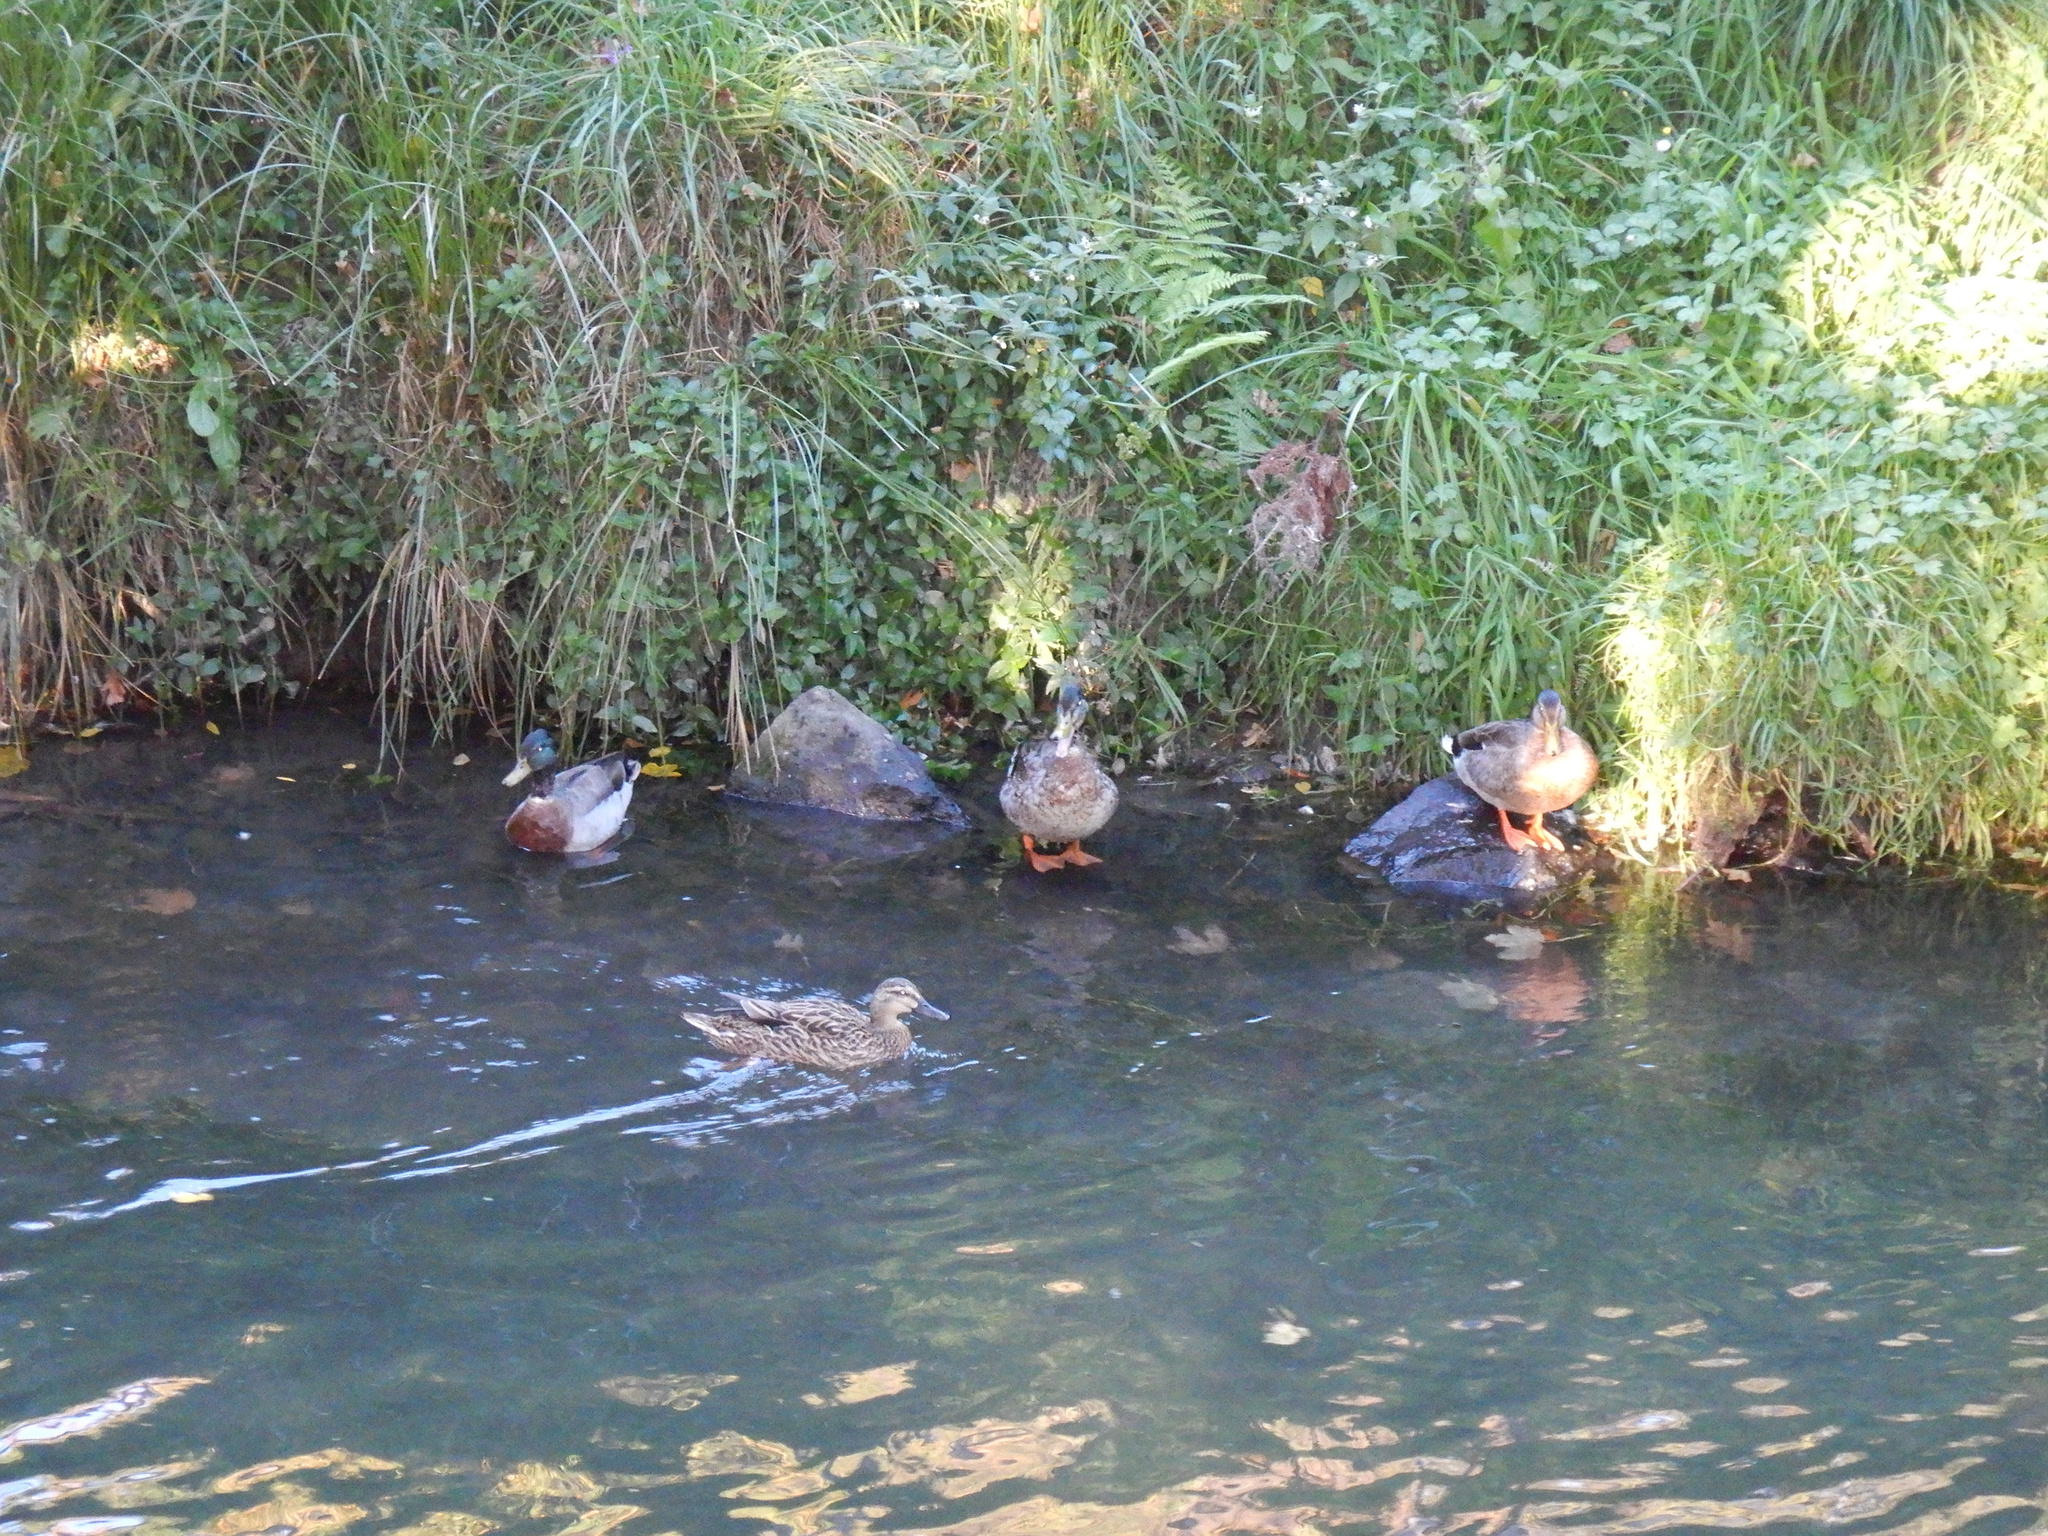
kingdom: Animalia
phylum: Chordata
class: Aves
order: Anseriformes
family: Anatidae
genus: Anas
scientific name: Anas platyrhynchos
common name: Mallard
